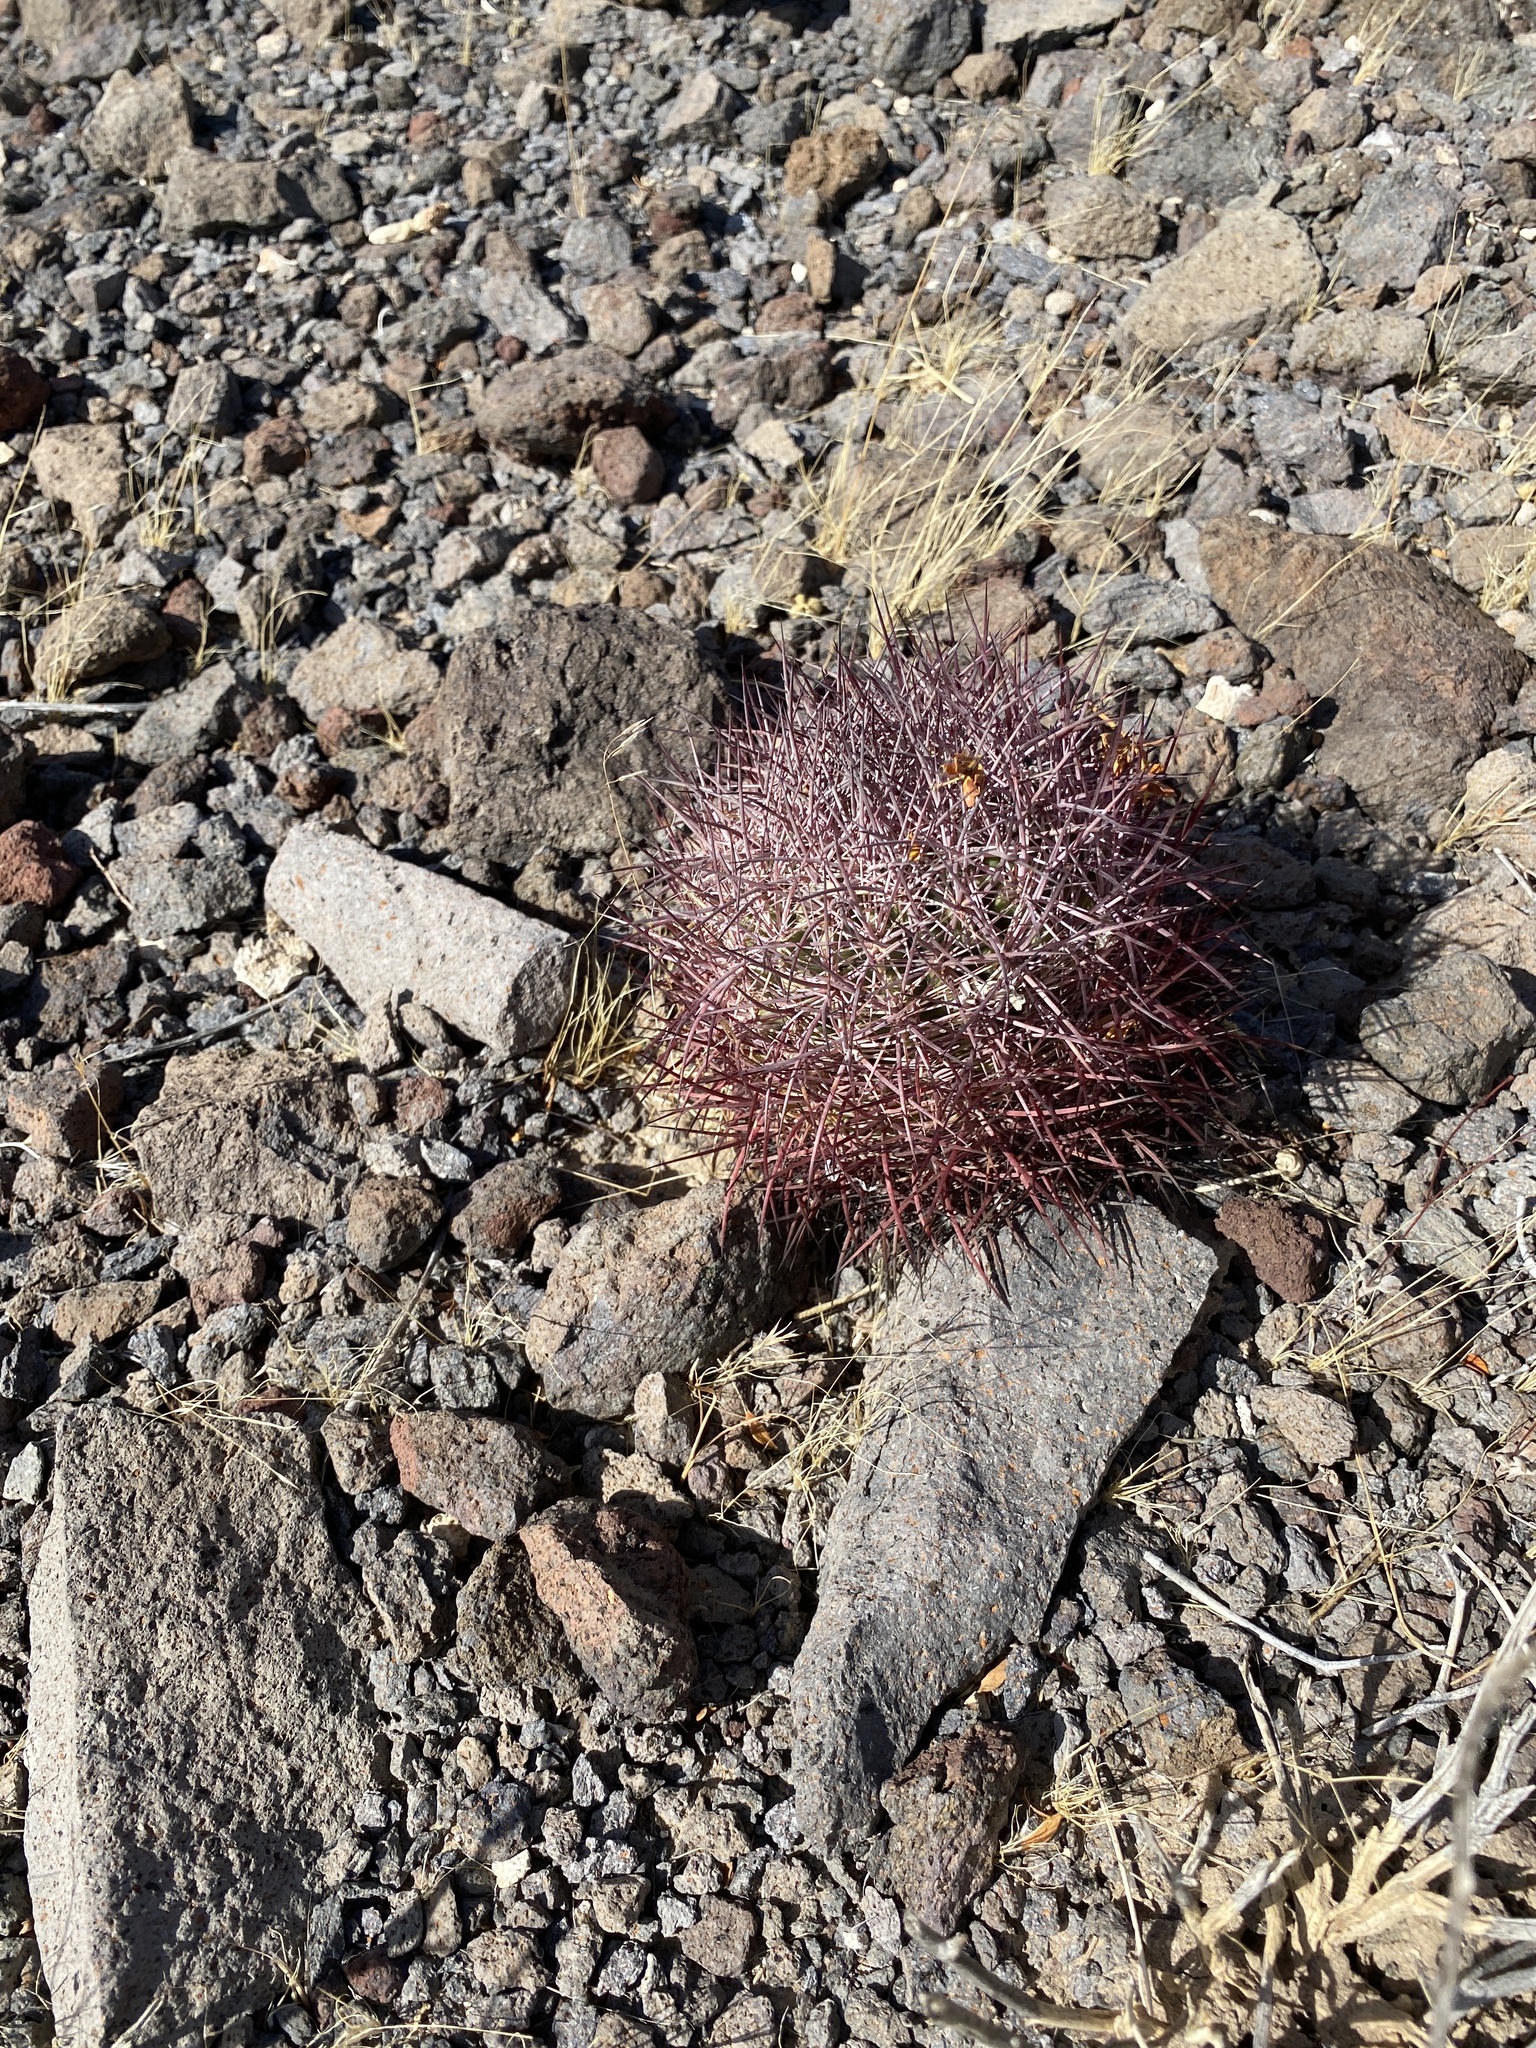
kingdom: Plantae
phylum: Tracheophyta
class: Magnoliopsida
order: Caryophyllales
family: Cactaceae
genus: Sclerocactus
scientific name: Sclerocactus johnsonii
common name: Eight-spine fishhook cactus
